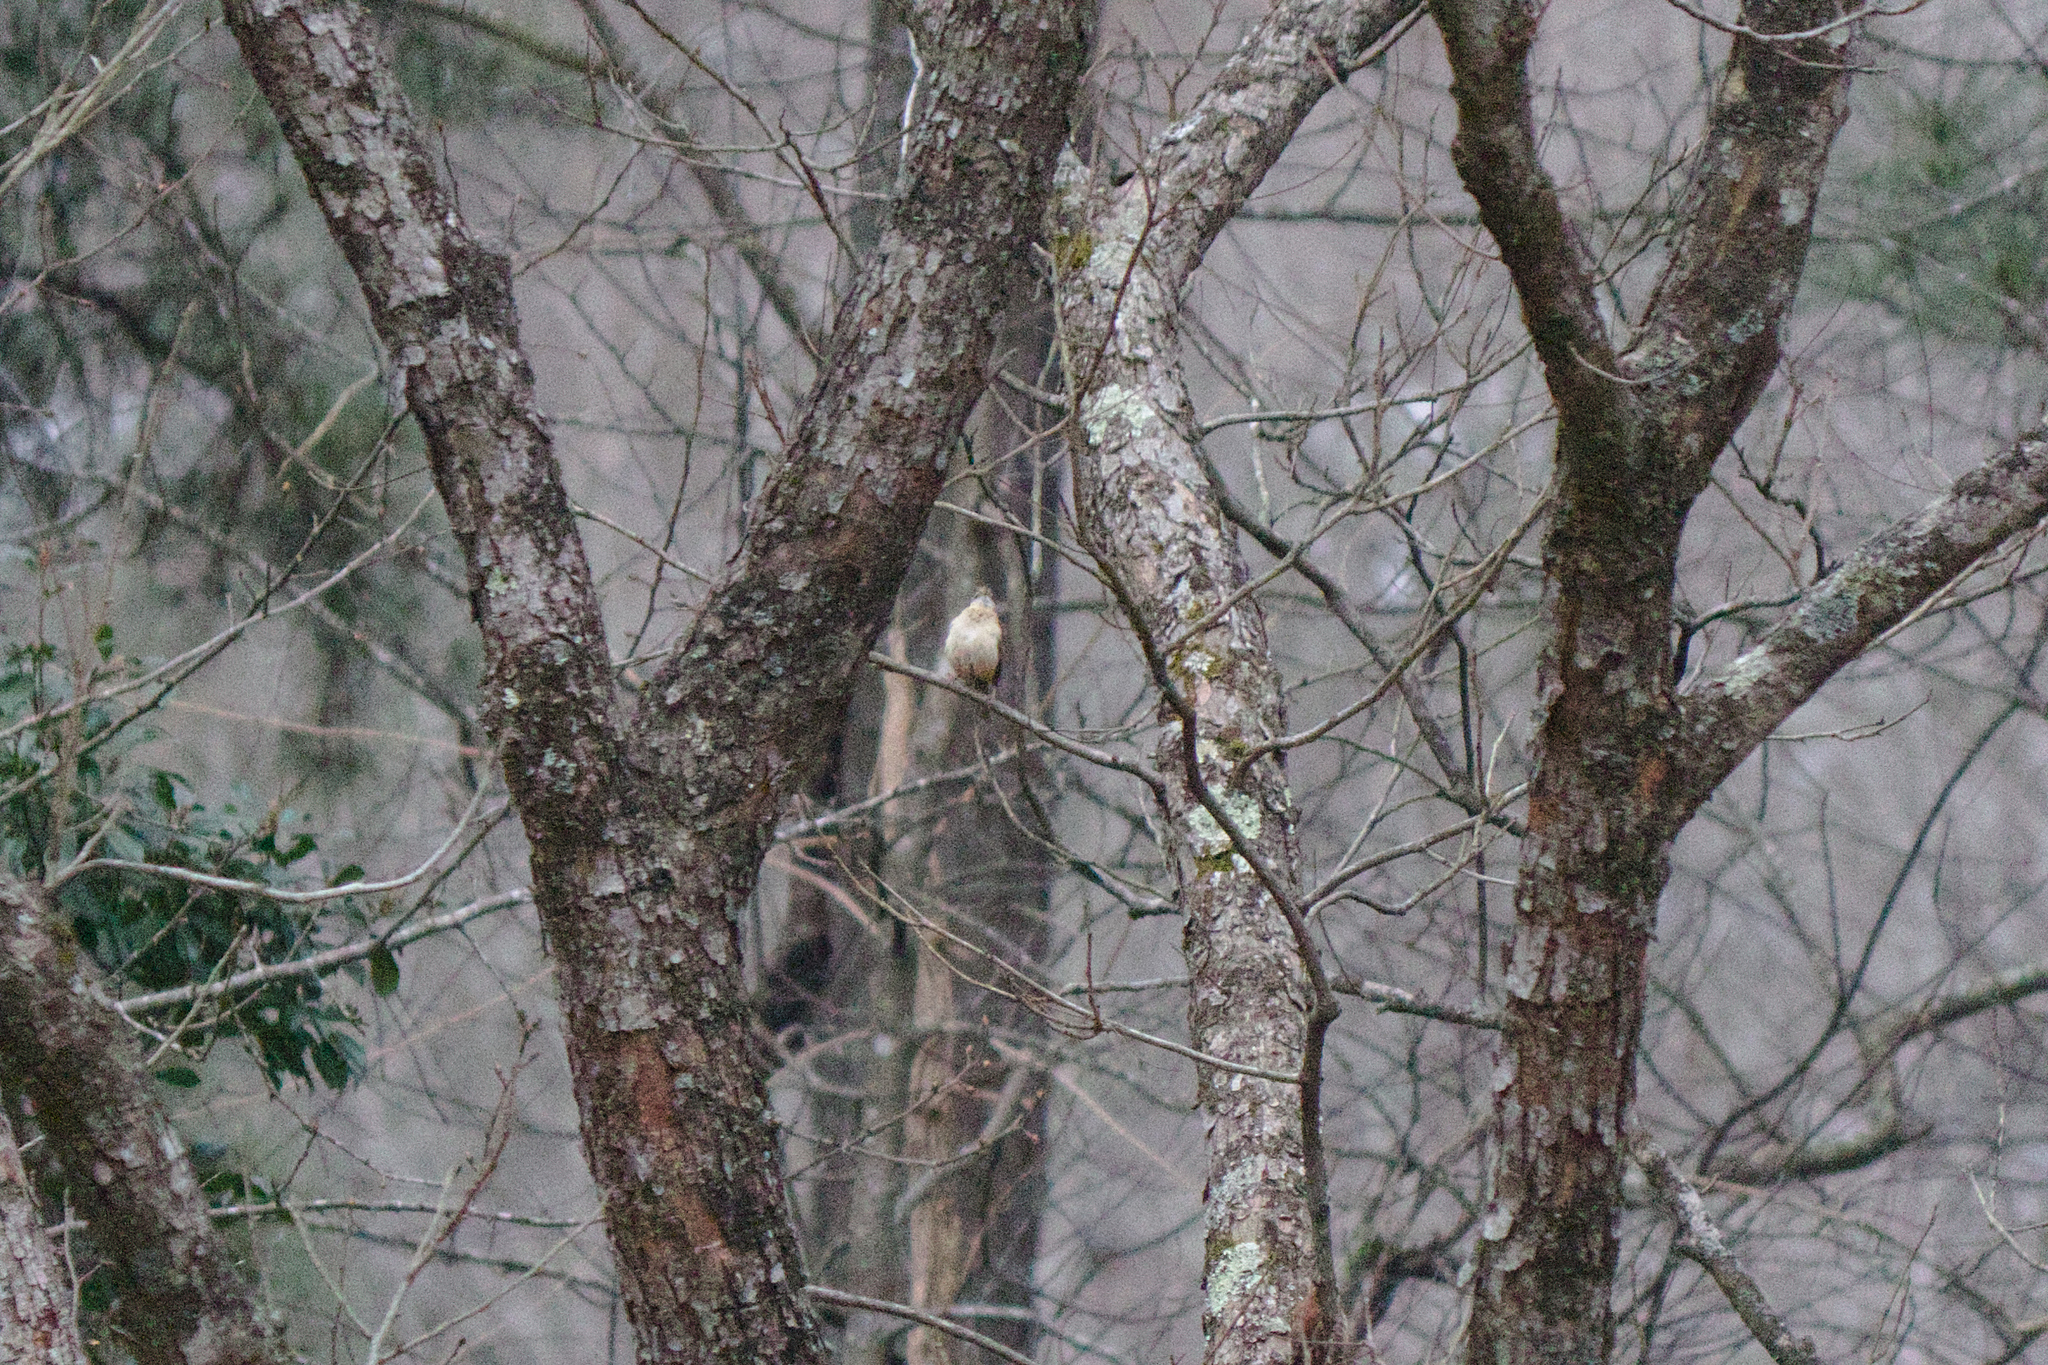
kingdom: Animalia
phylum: Chordata
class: Aves
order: Passeriformes
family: Troglodytidae
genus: Thryothorus
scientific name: Thryothorus ludovicianus
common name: Carolina wren
